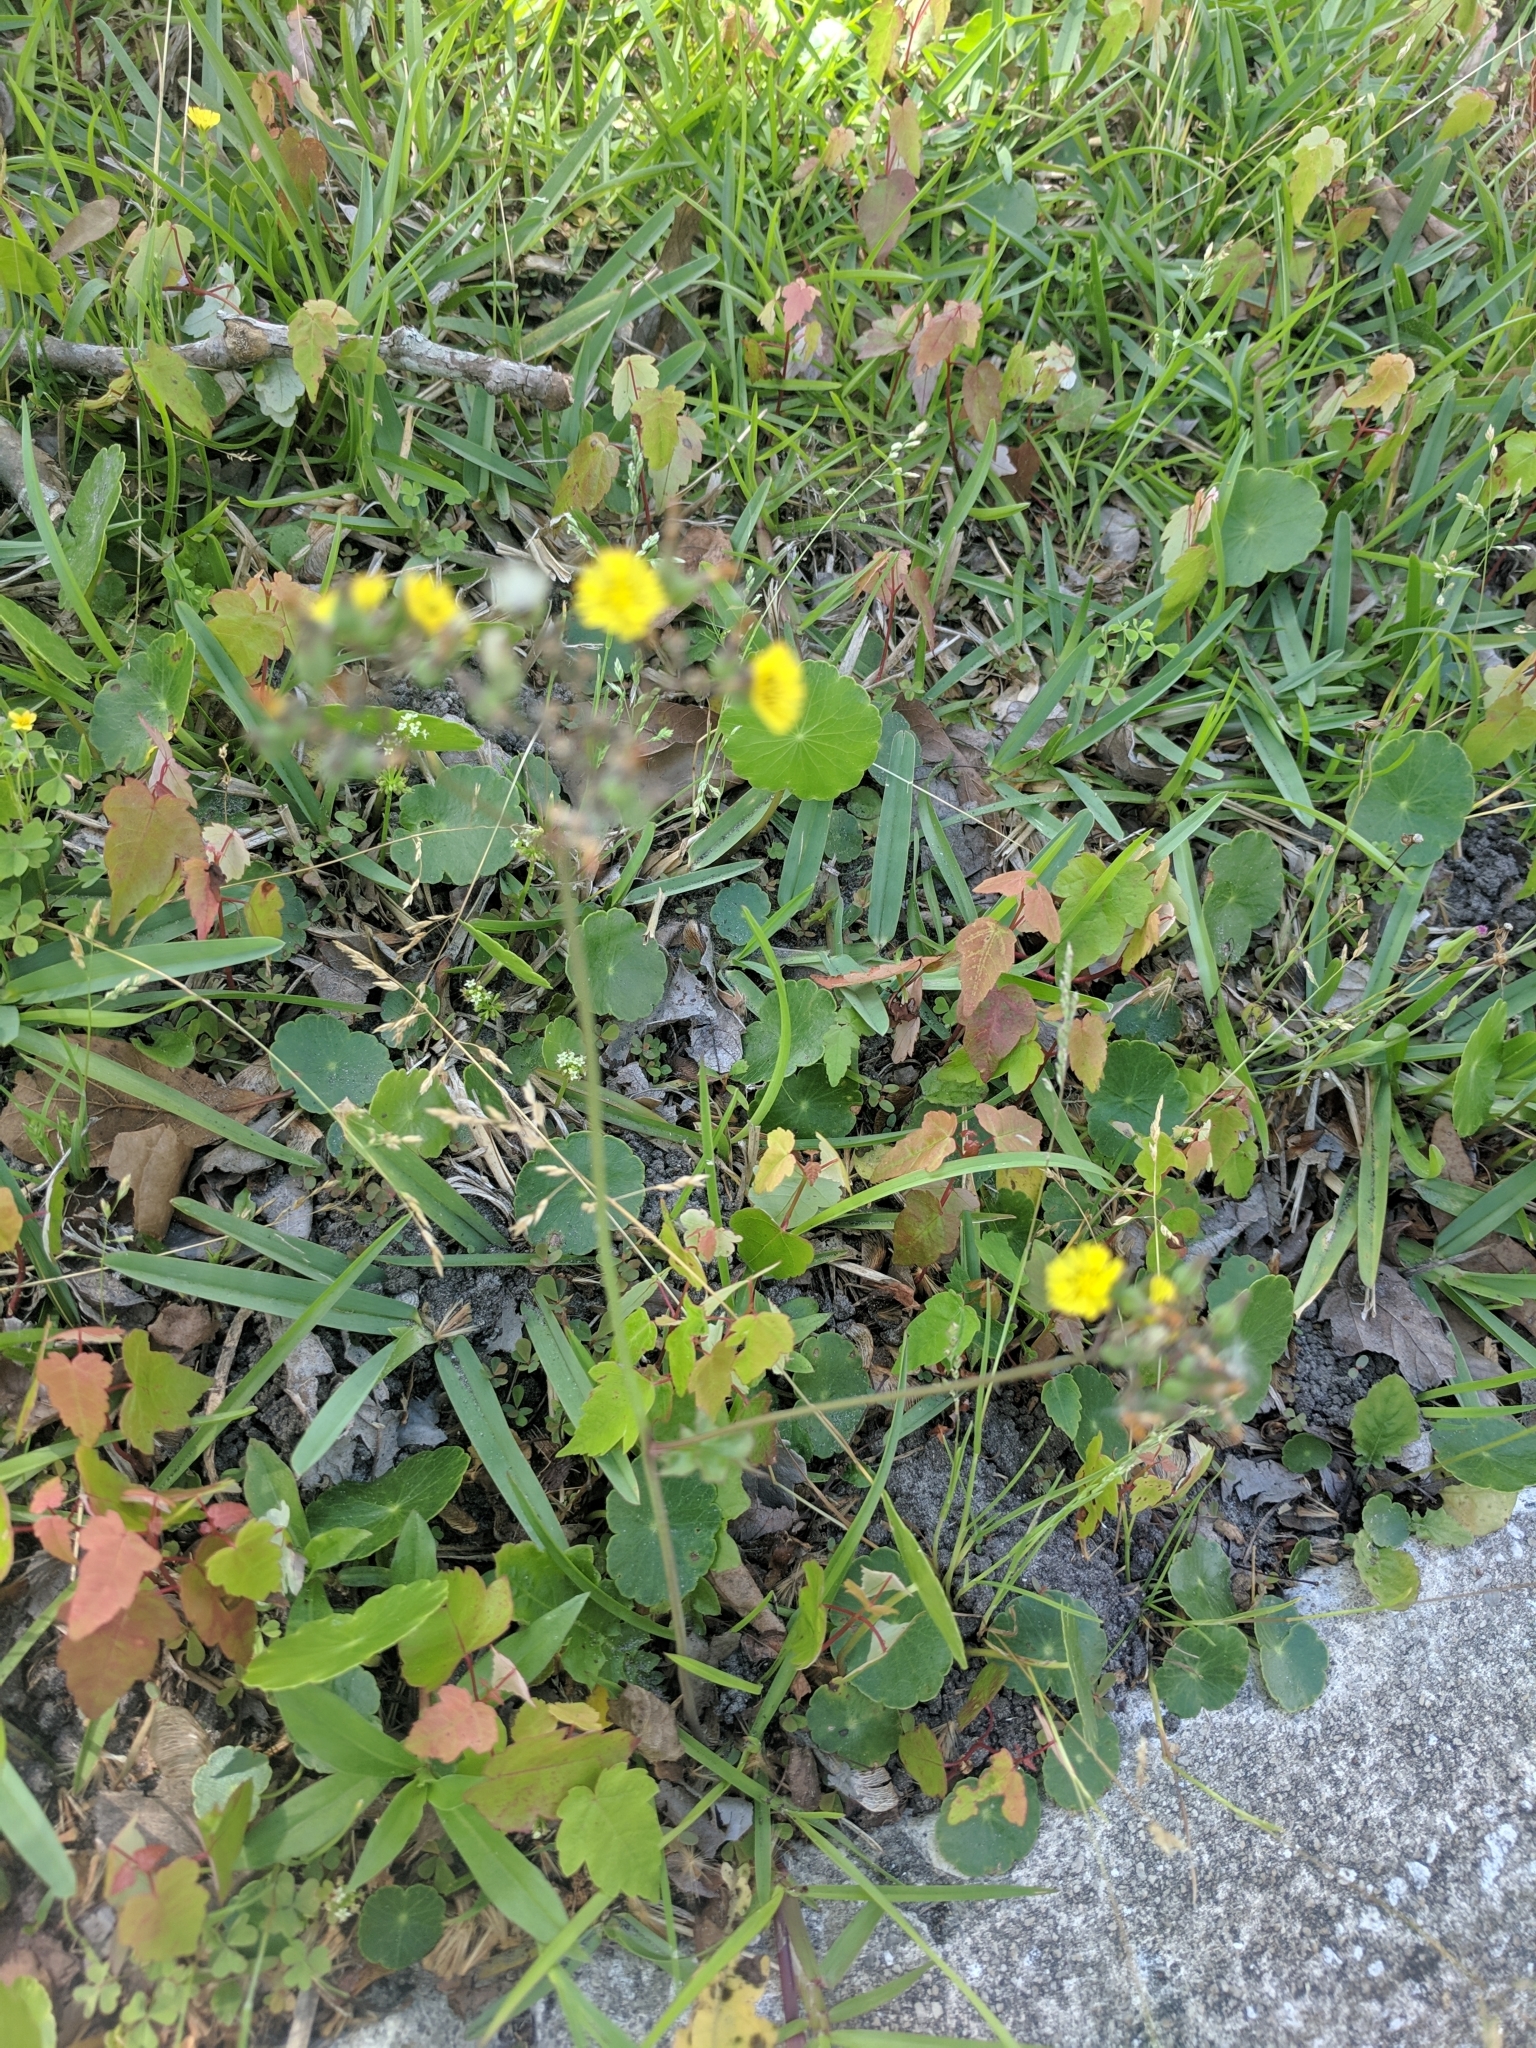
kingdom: Plantae
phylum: Tracheophyta
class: Magnoliopsida
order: Asterales
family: Asteraceae
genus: Youngia
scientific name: Youngia japonica
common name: Oriental false hawksbeard
